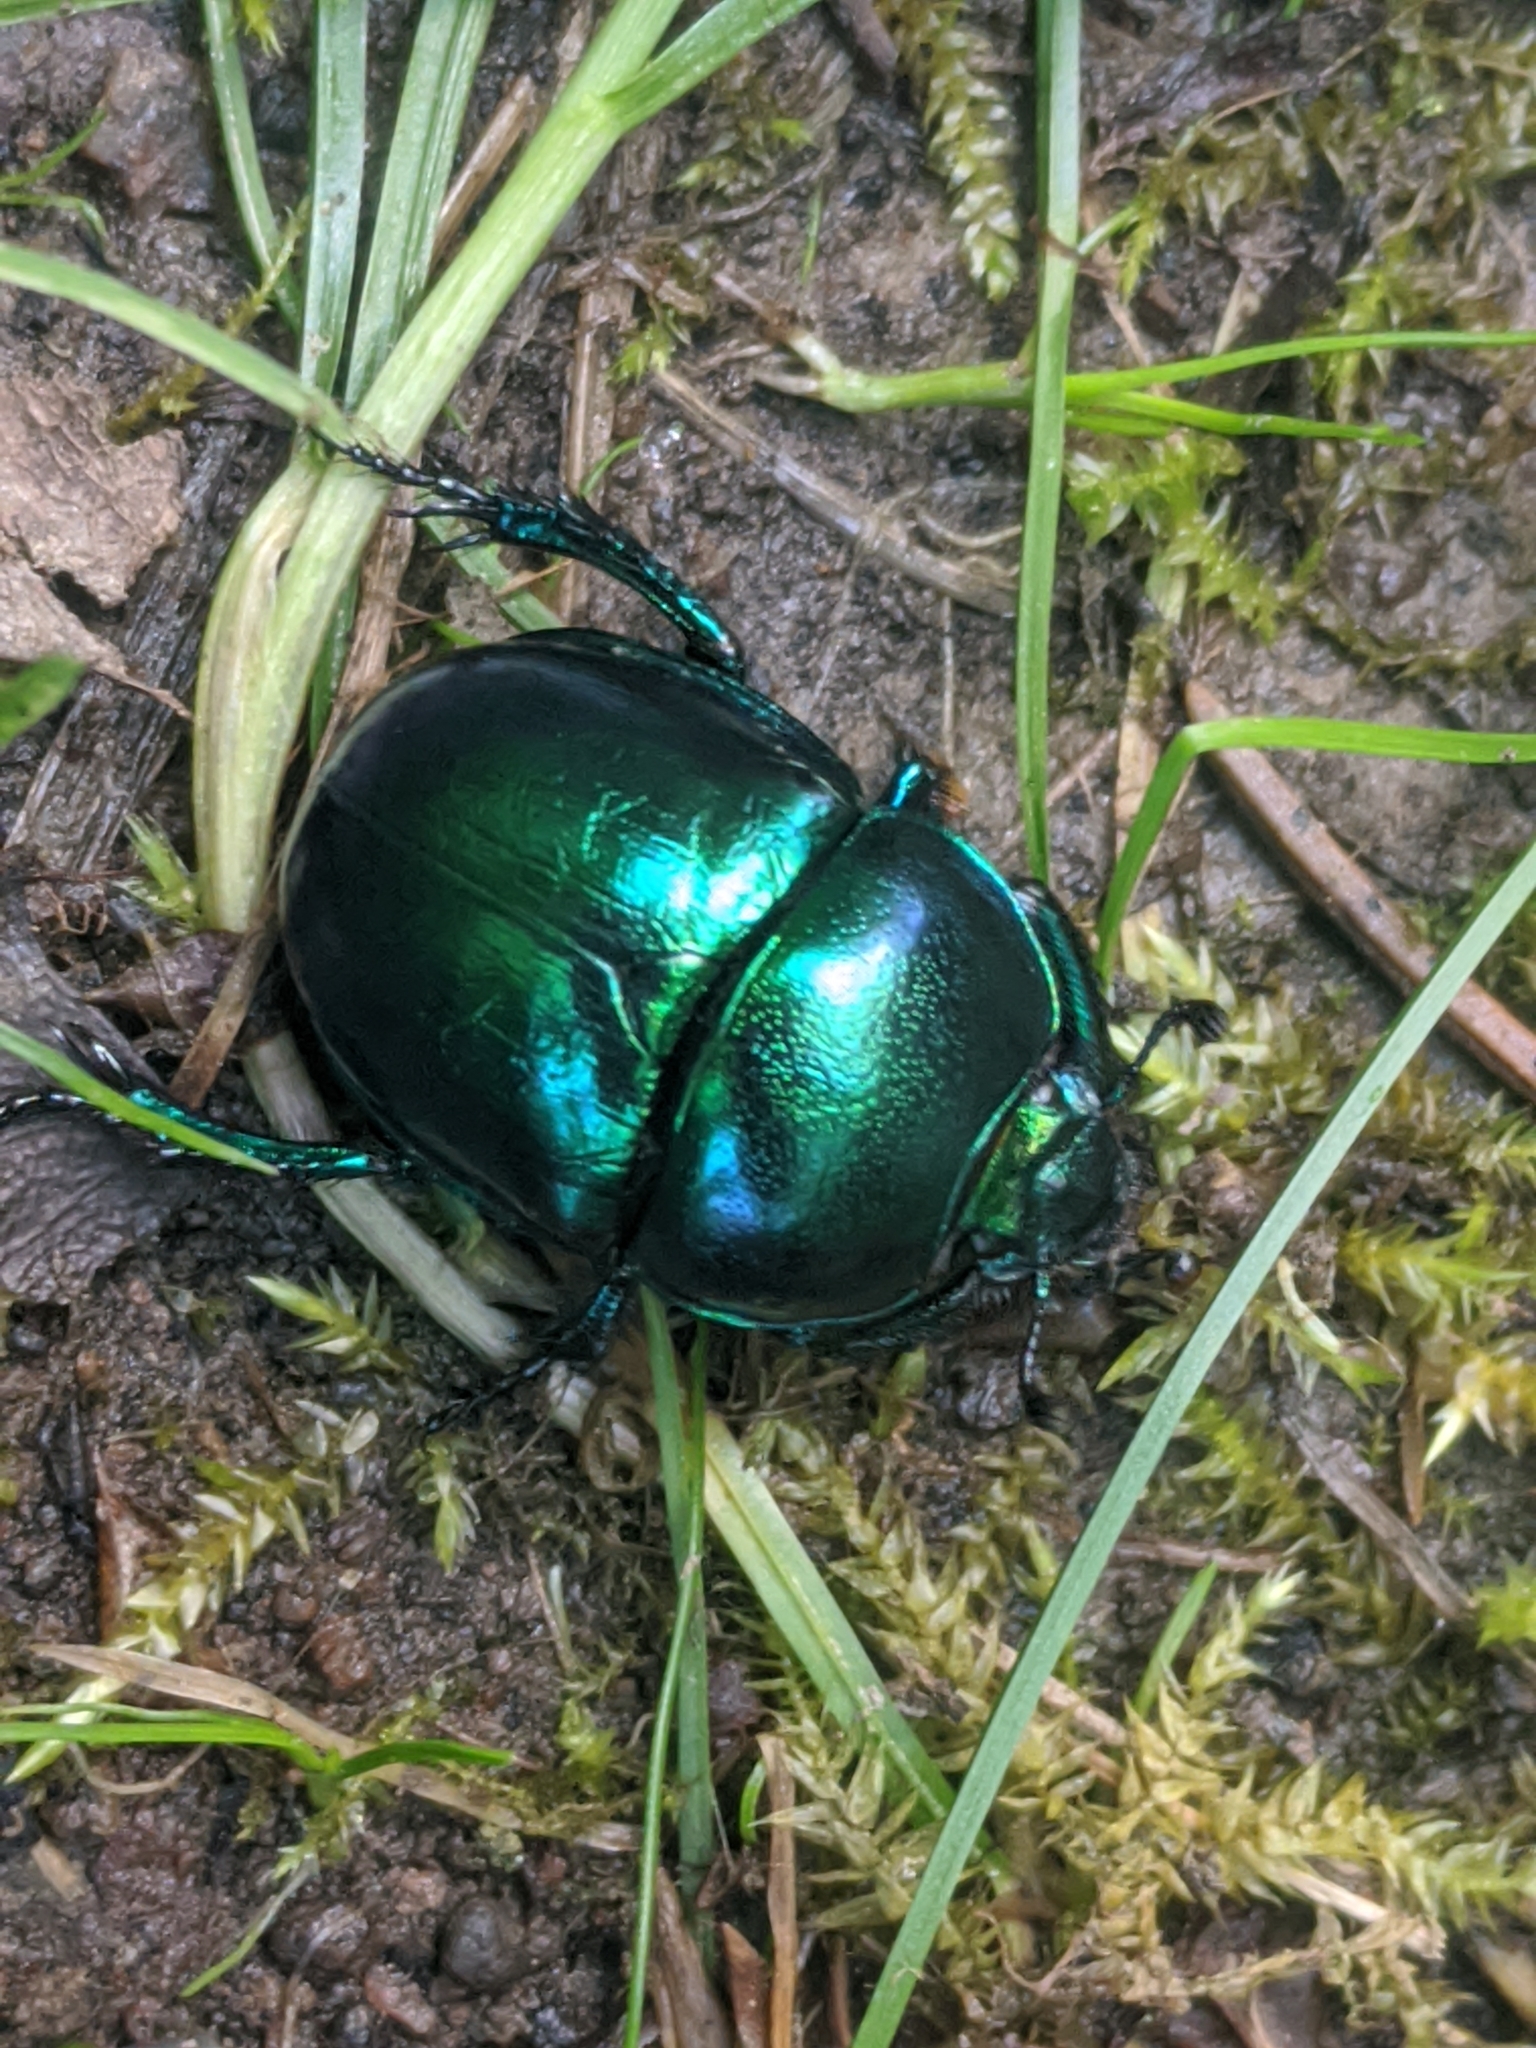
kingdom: Animalia
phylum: Arthropoda
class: Insecta
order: Coleoptera
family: Geotrupidae
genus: Trypocopris
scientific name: Trypocopris vernalis
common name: Spring dumbledor
